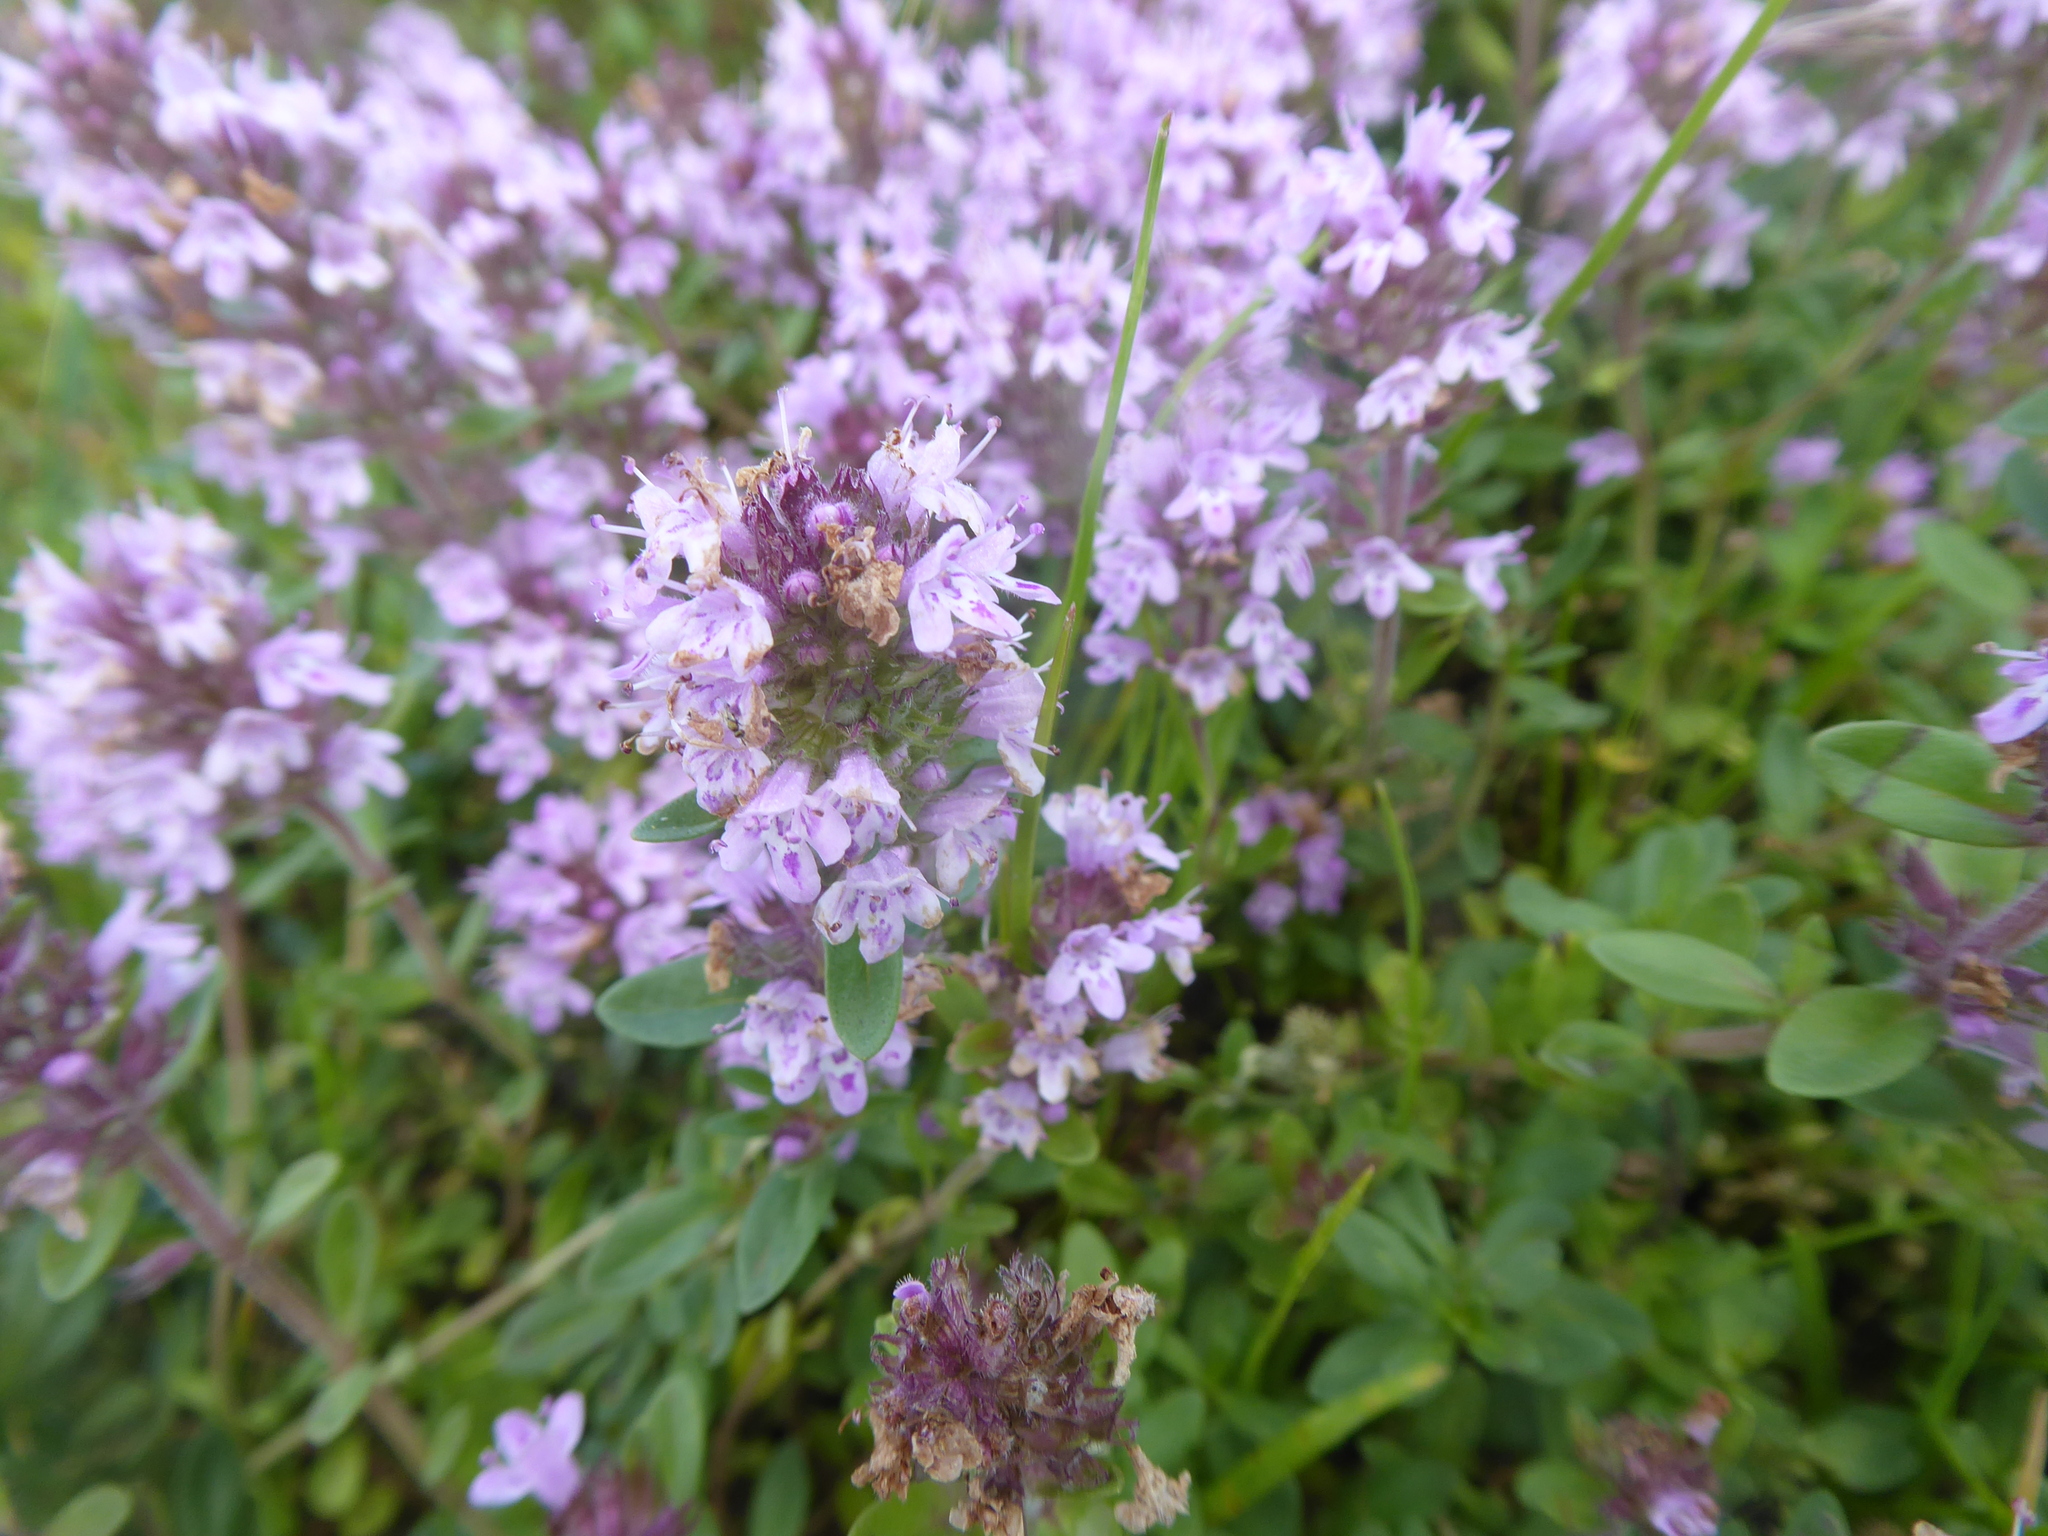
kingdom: Animalia
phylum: Arthropoda
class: Insecta
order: Hymenoptera
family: Apidae
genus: Apis
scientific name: Apis mellifera
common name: Honey bee
